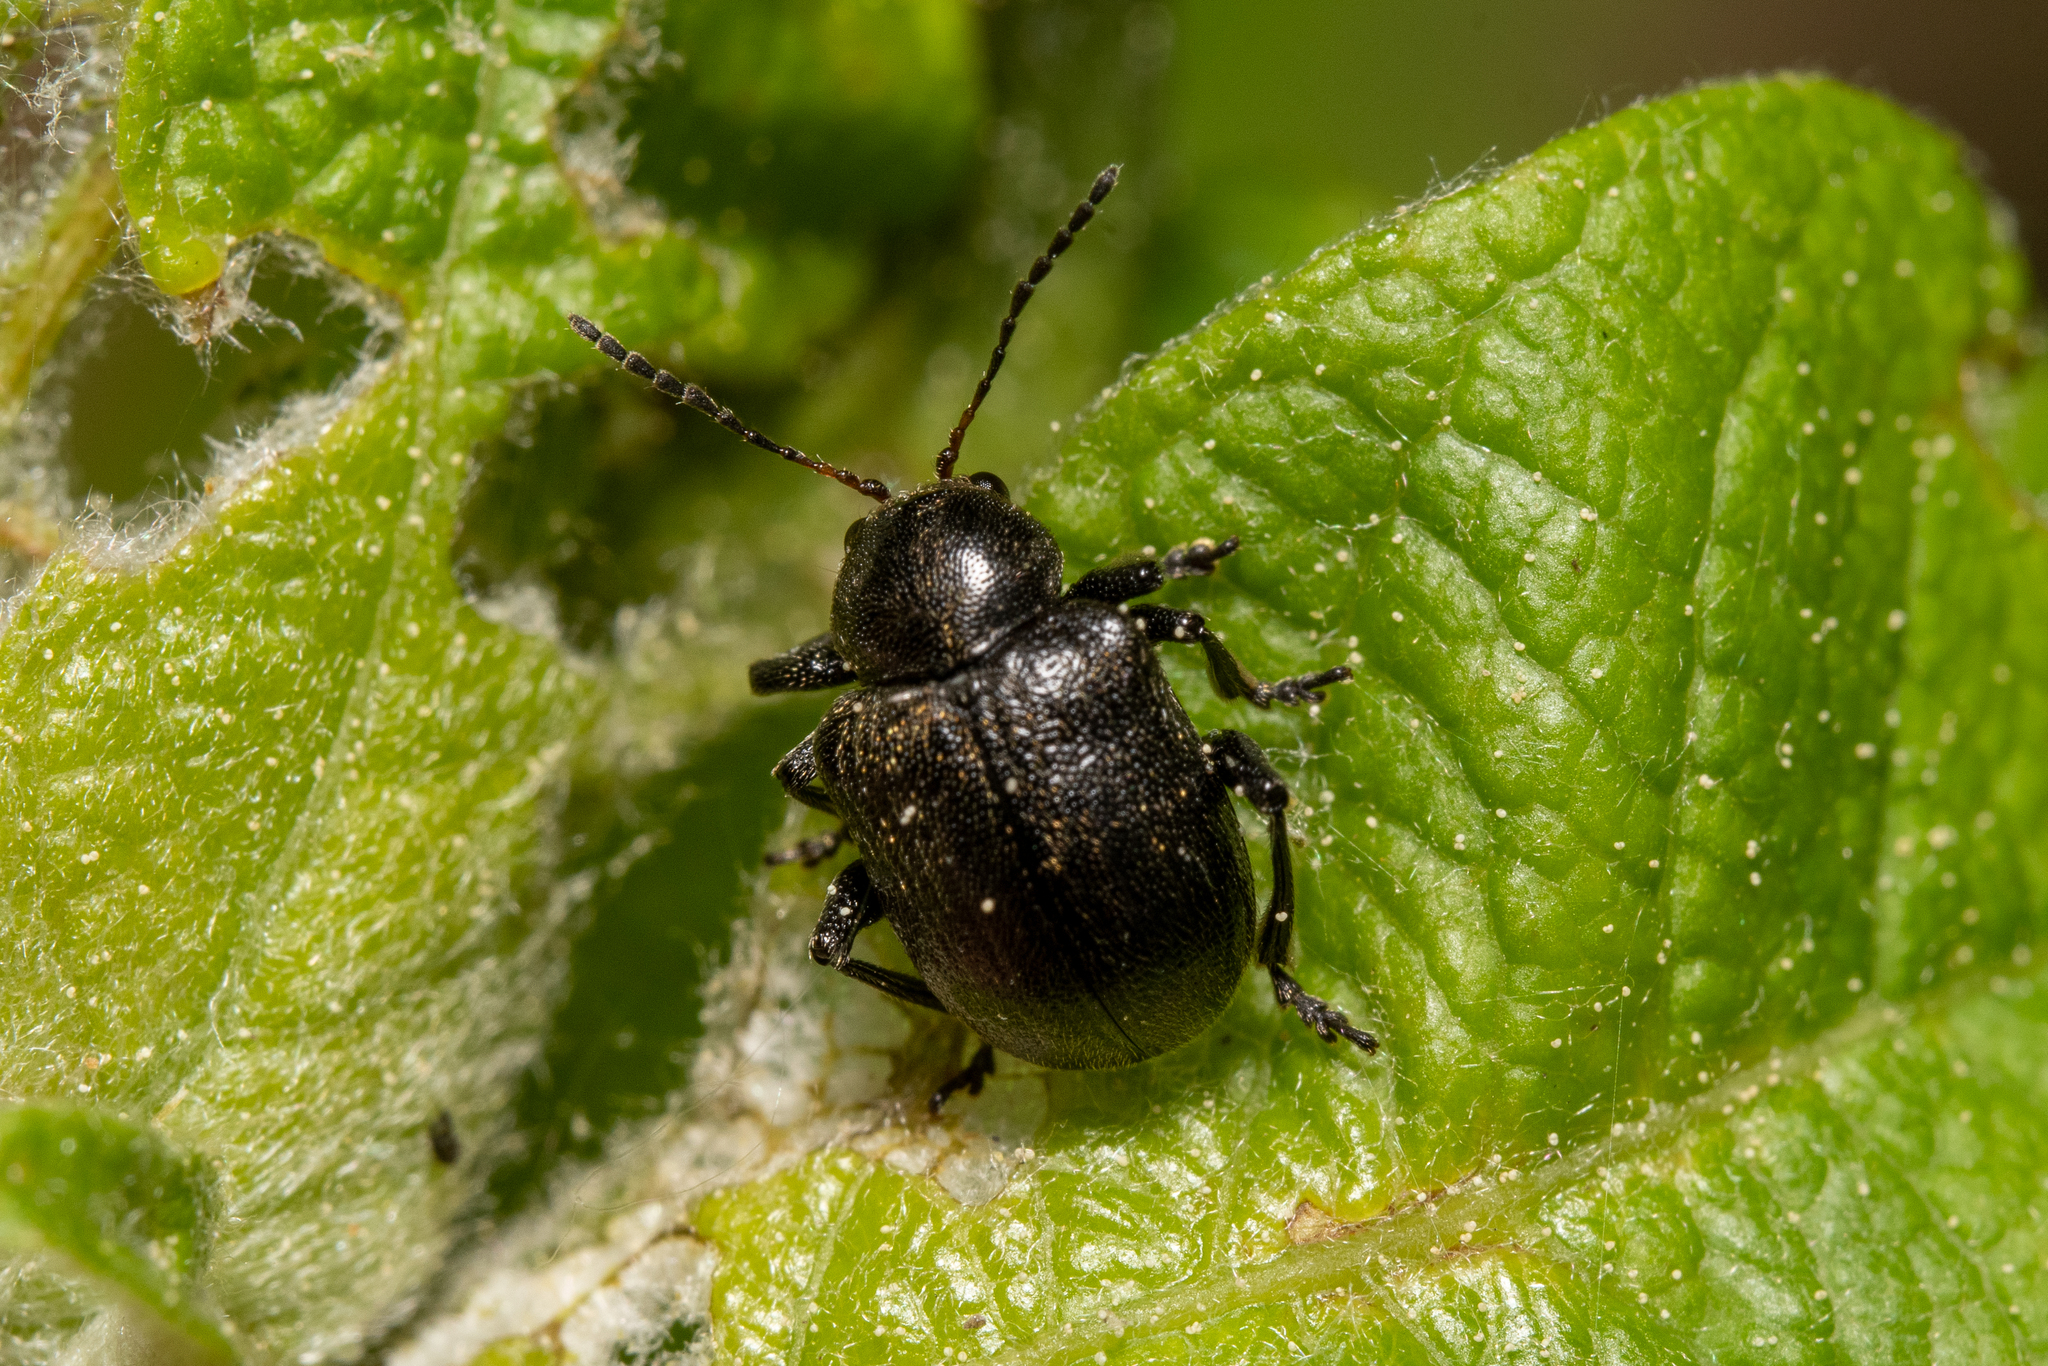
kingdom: Animalia
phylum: Arthropoda
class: Insecta
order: Coleoptera
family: Chrysomelidae
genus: Bromius
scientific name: Bromius obscurus
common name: Western grape rootworm
